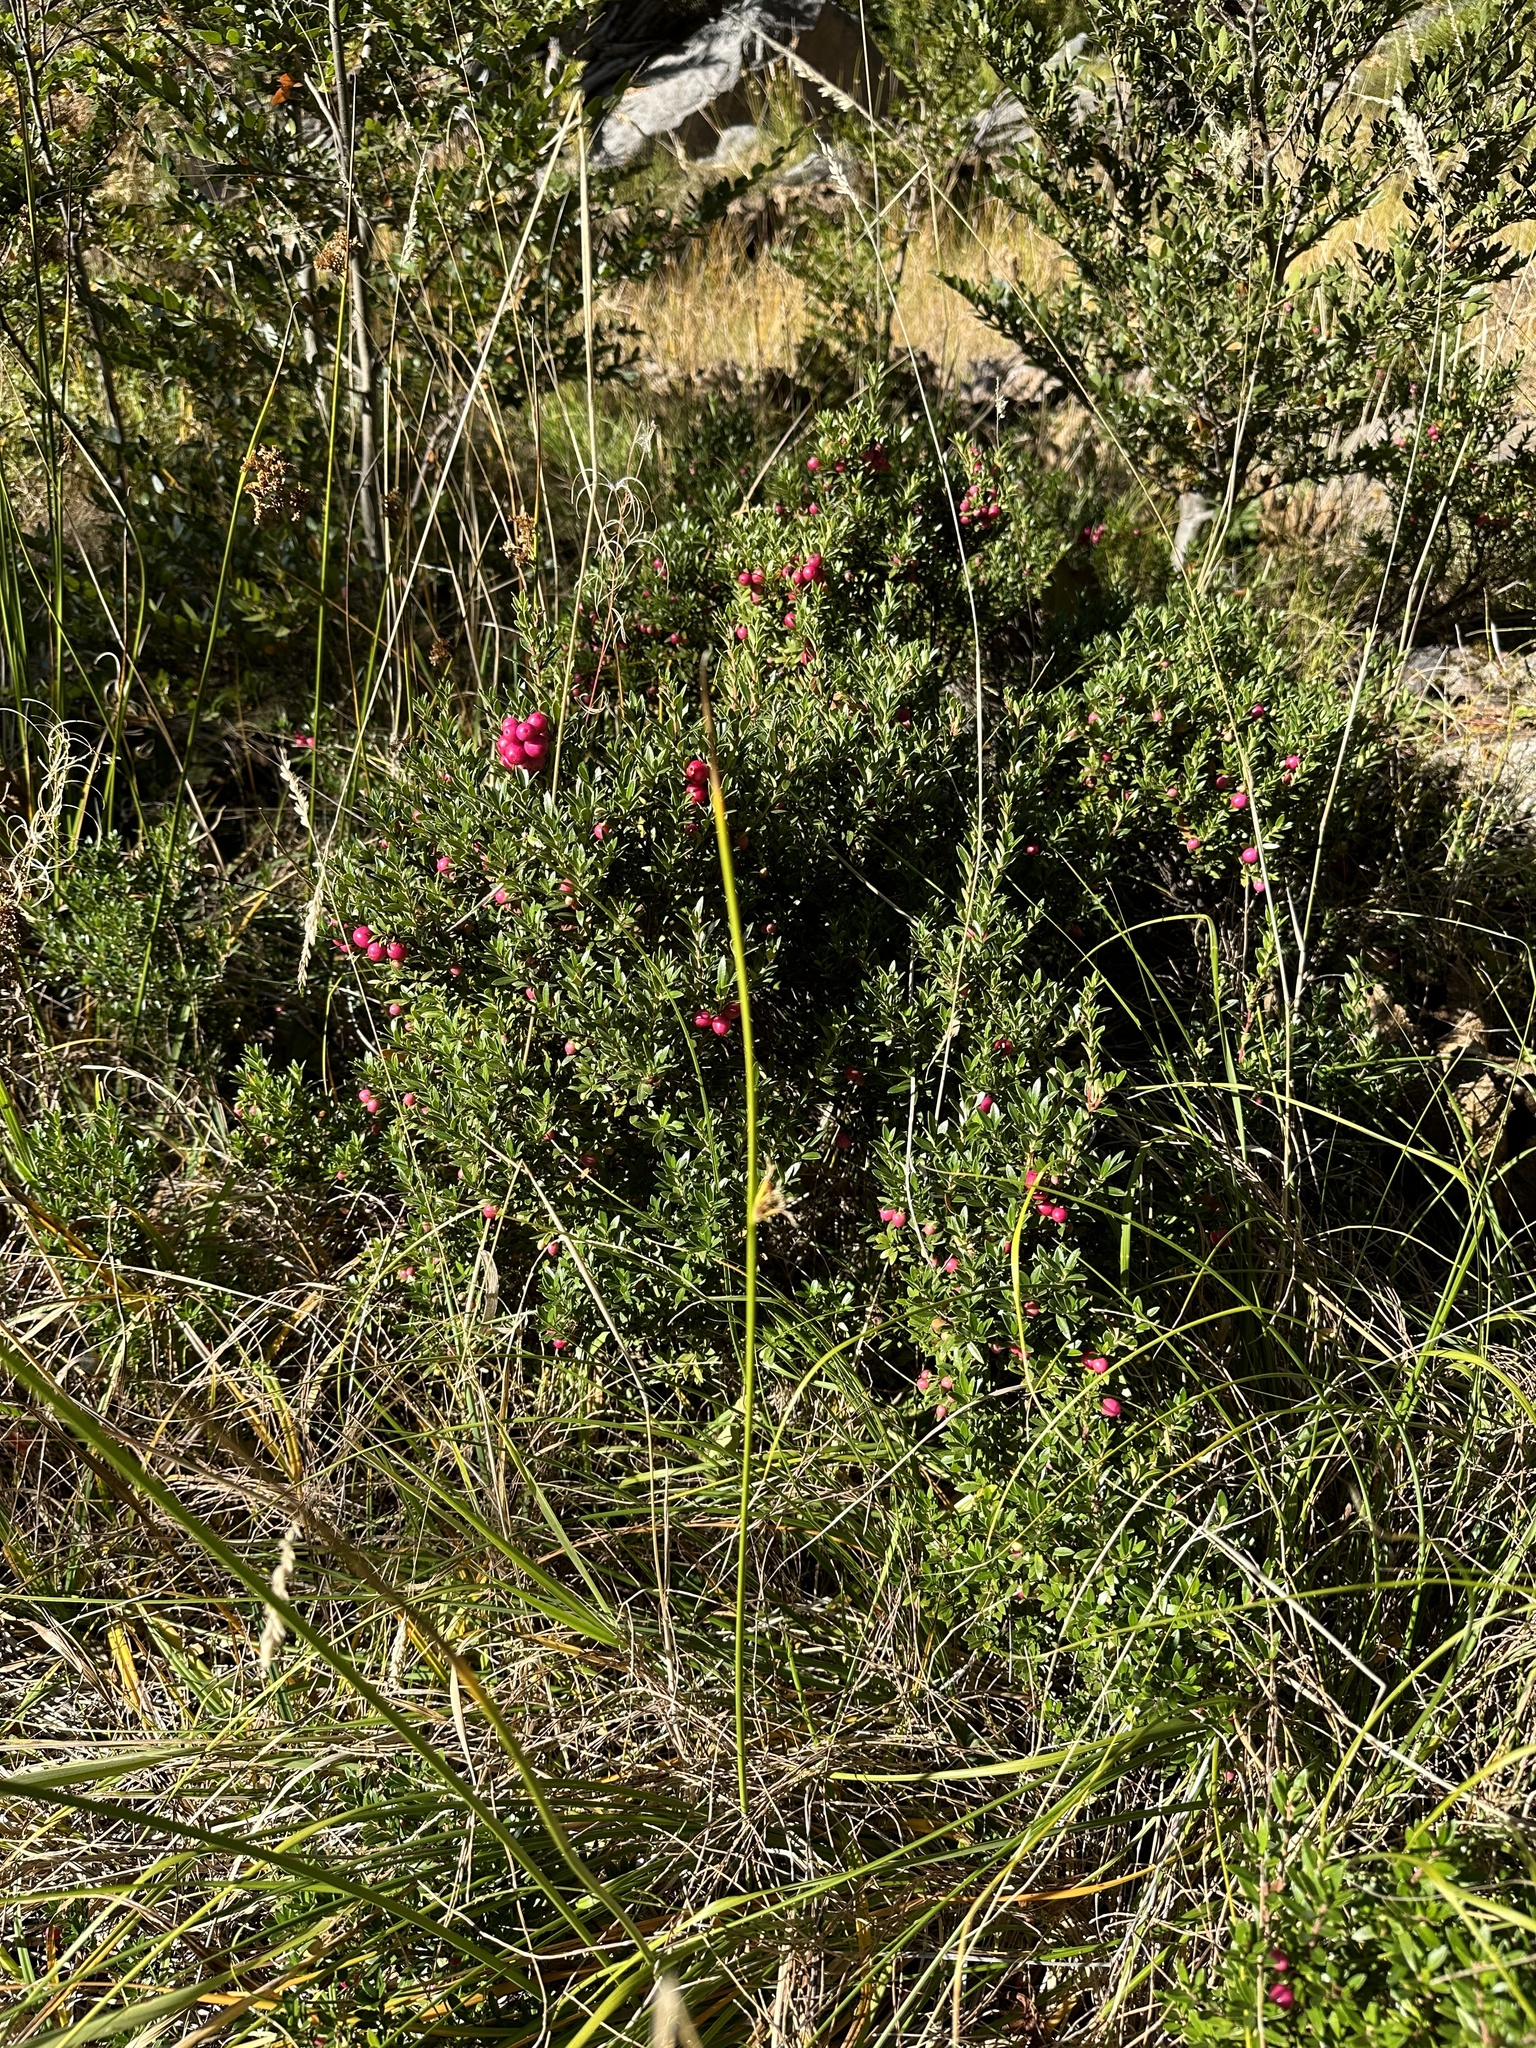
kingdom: Plantae
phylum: Tracheophyta
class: Magnoliopsida
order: Ericales
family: Ericaceae
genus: Gaultheria
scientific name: Gaultheria poeppigii
